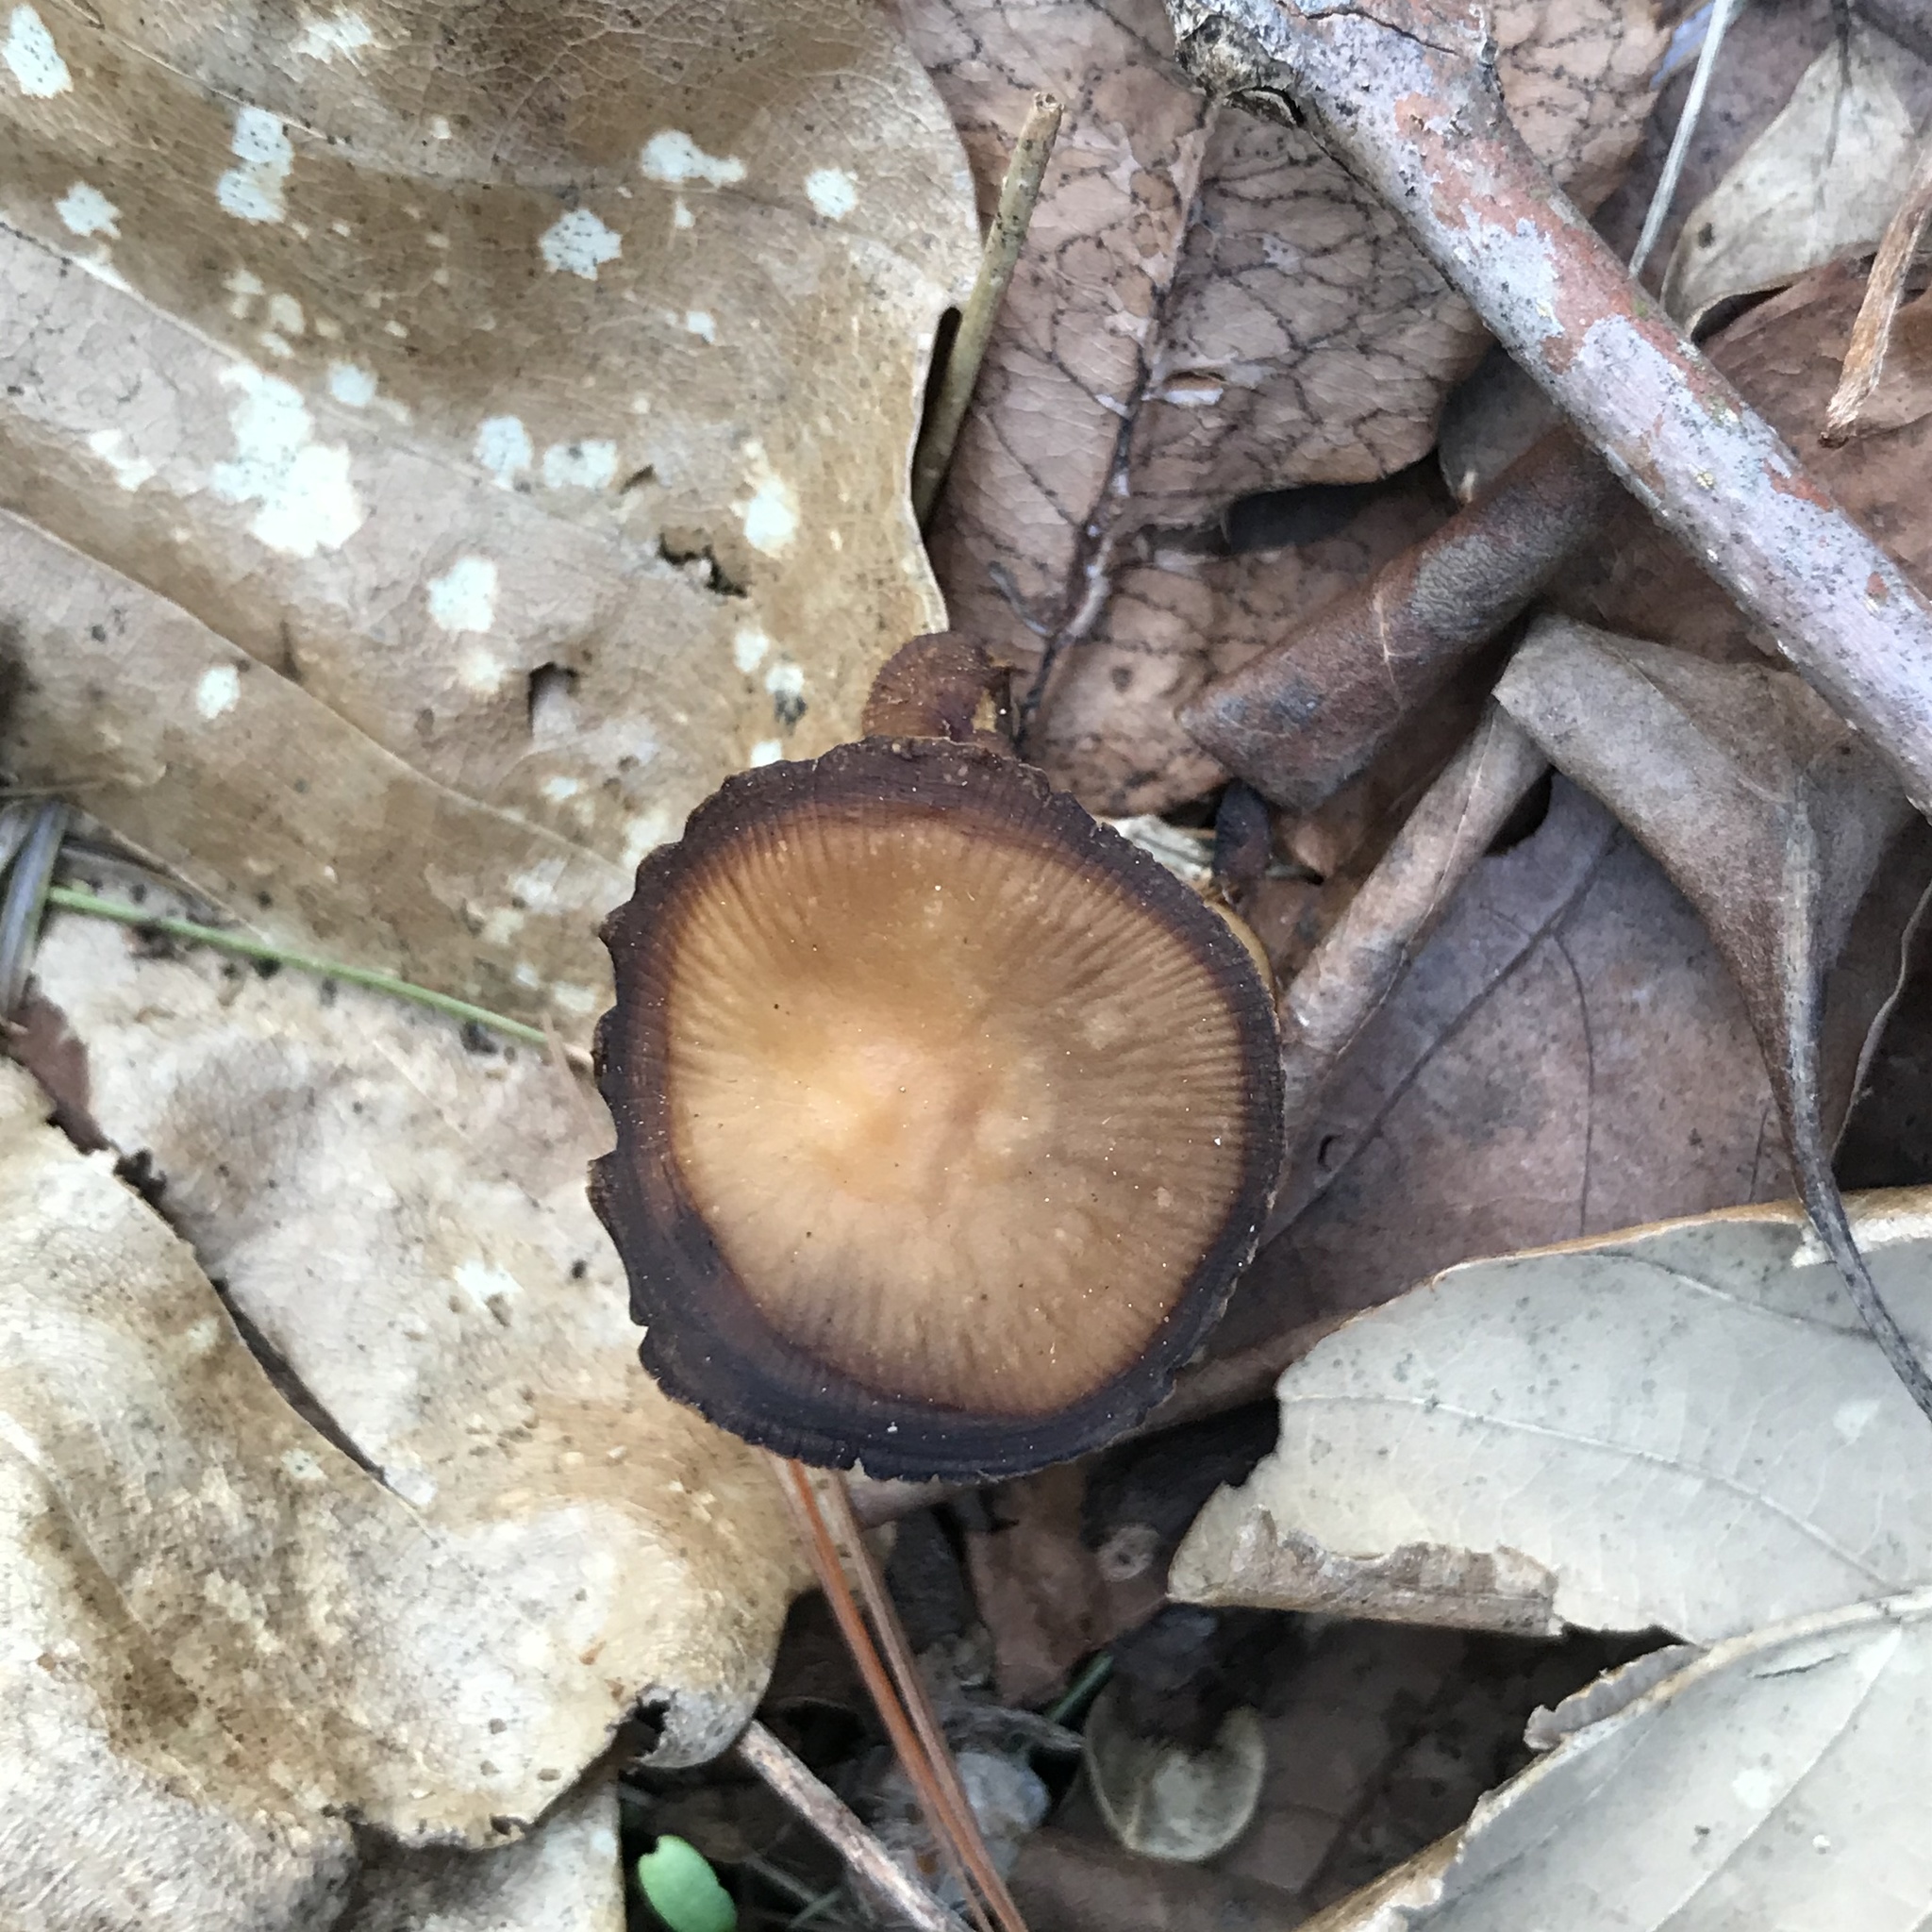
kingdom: Fungi
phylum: Basidiomycota
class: Agaricomycetes
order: Agaricales
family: Psathyrellaceae
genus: Psathyrella
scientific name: Psathyrella bipellis
